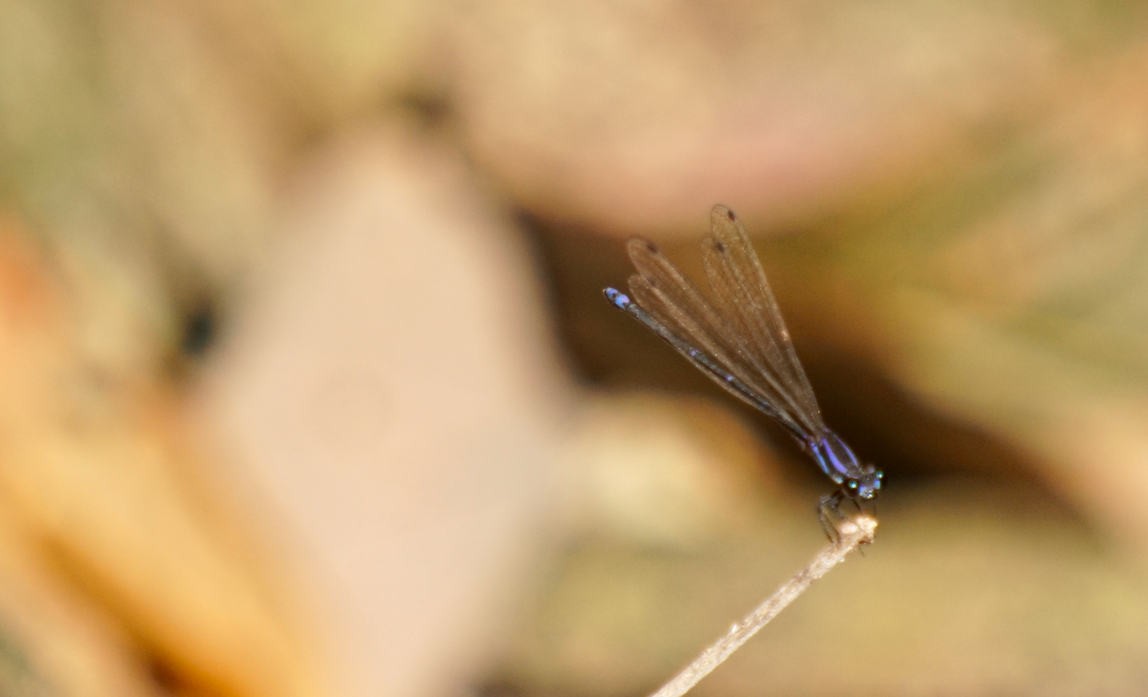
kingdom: Animalia
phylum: Arthropoda
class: Insecta
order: Odonata
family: Coenagrionidae
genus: Argia
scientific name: Argia oculata
